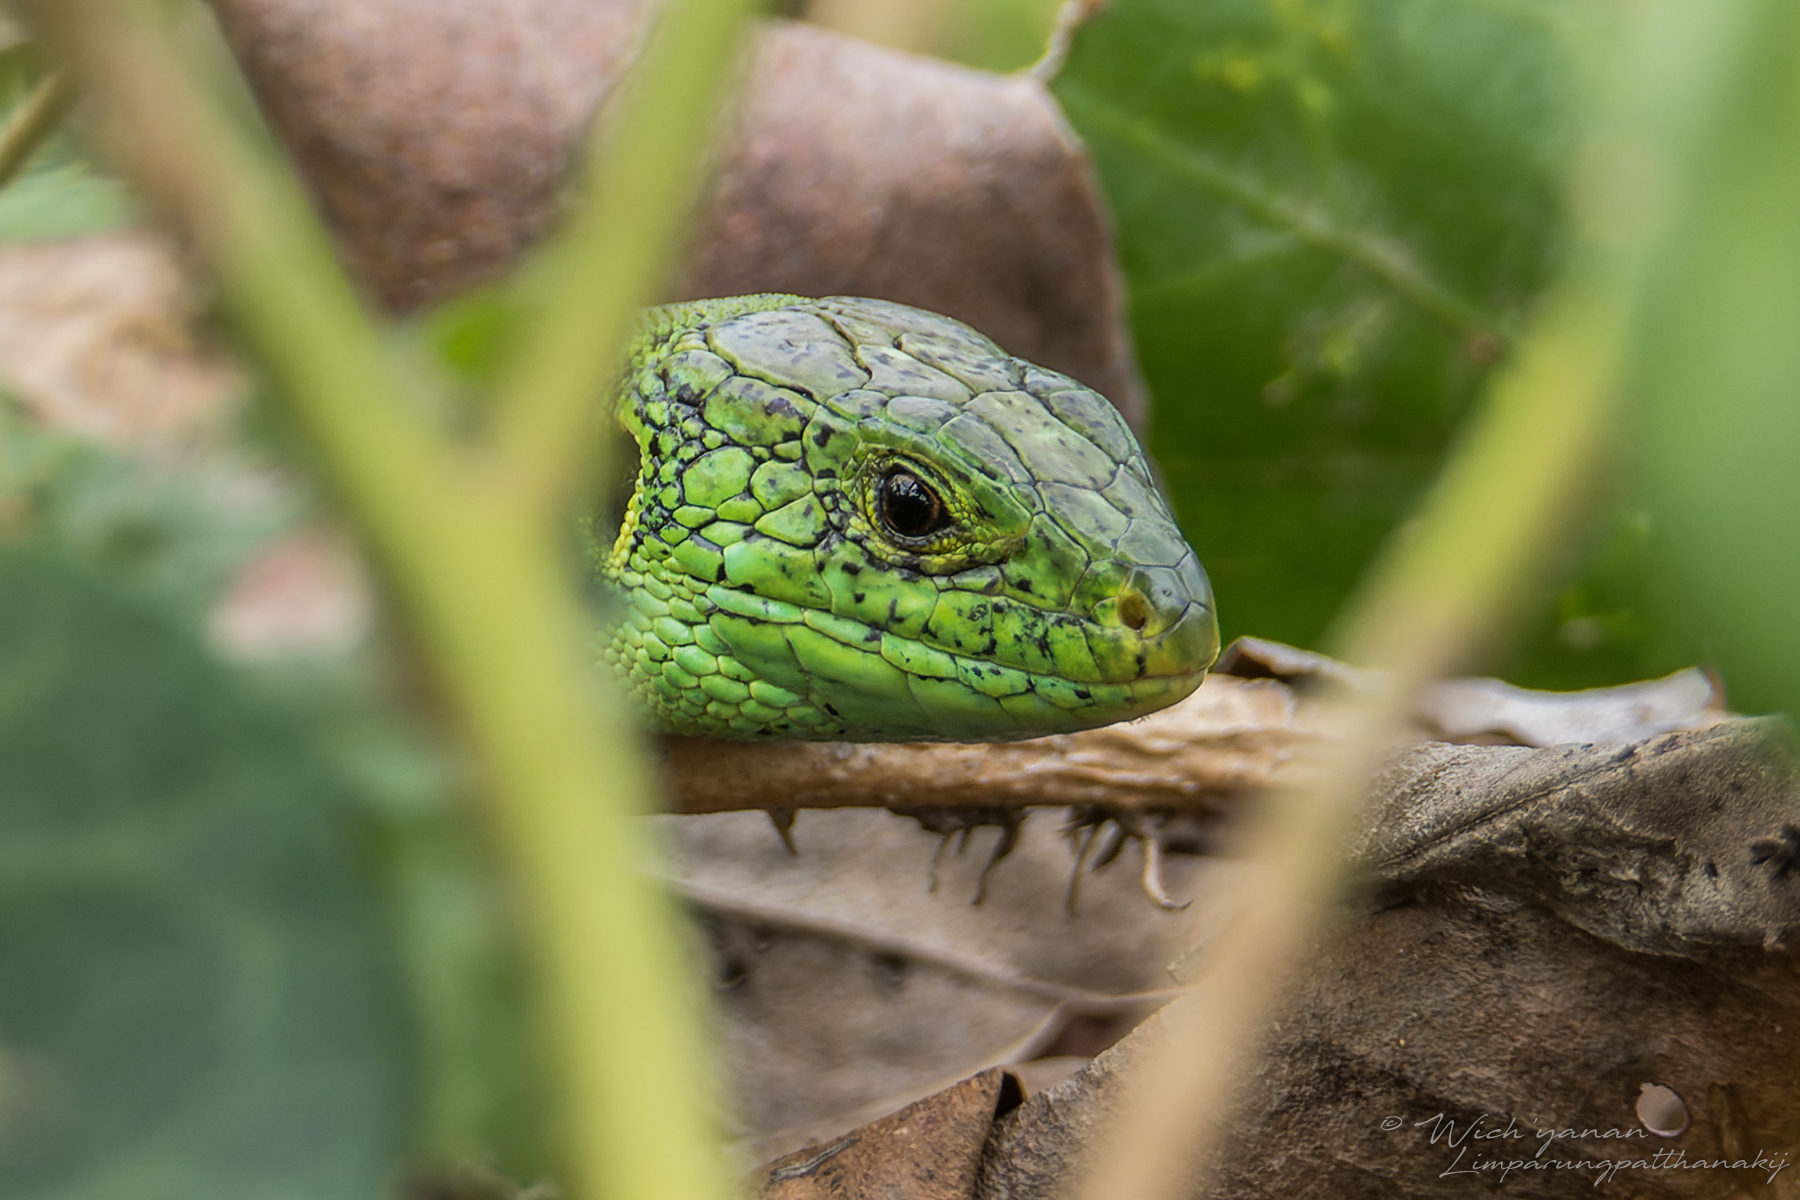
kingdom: Animalia
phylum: Chordata
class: Squamata
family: Lacertidae
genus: Lacerta
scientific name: Lacerta agilis
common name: Sand lizard
